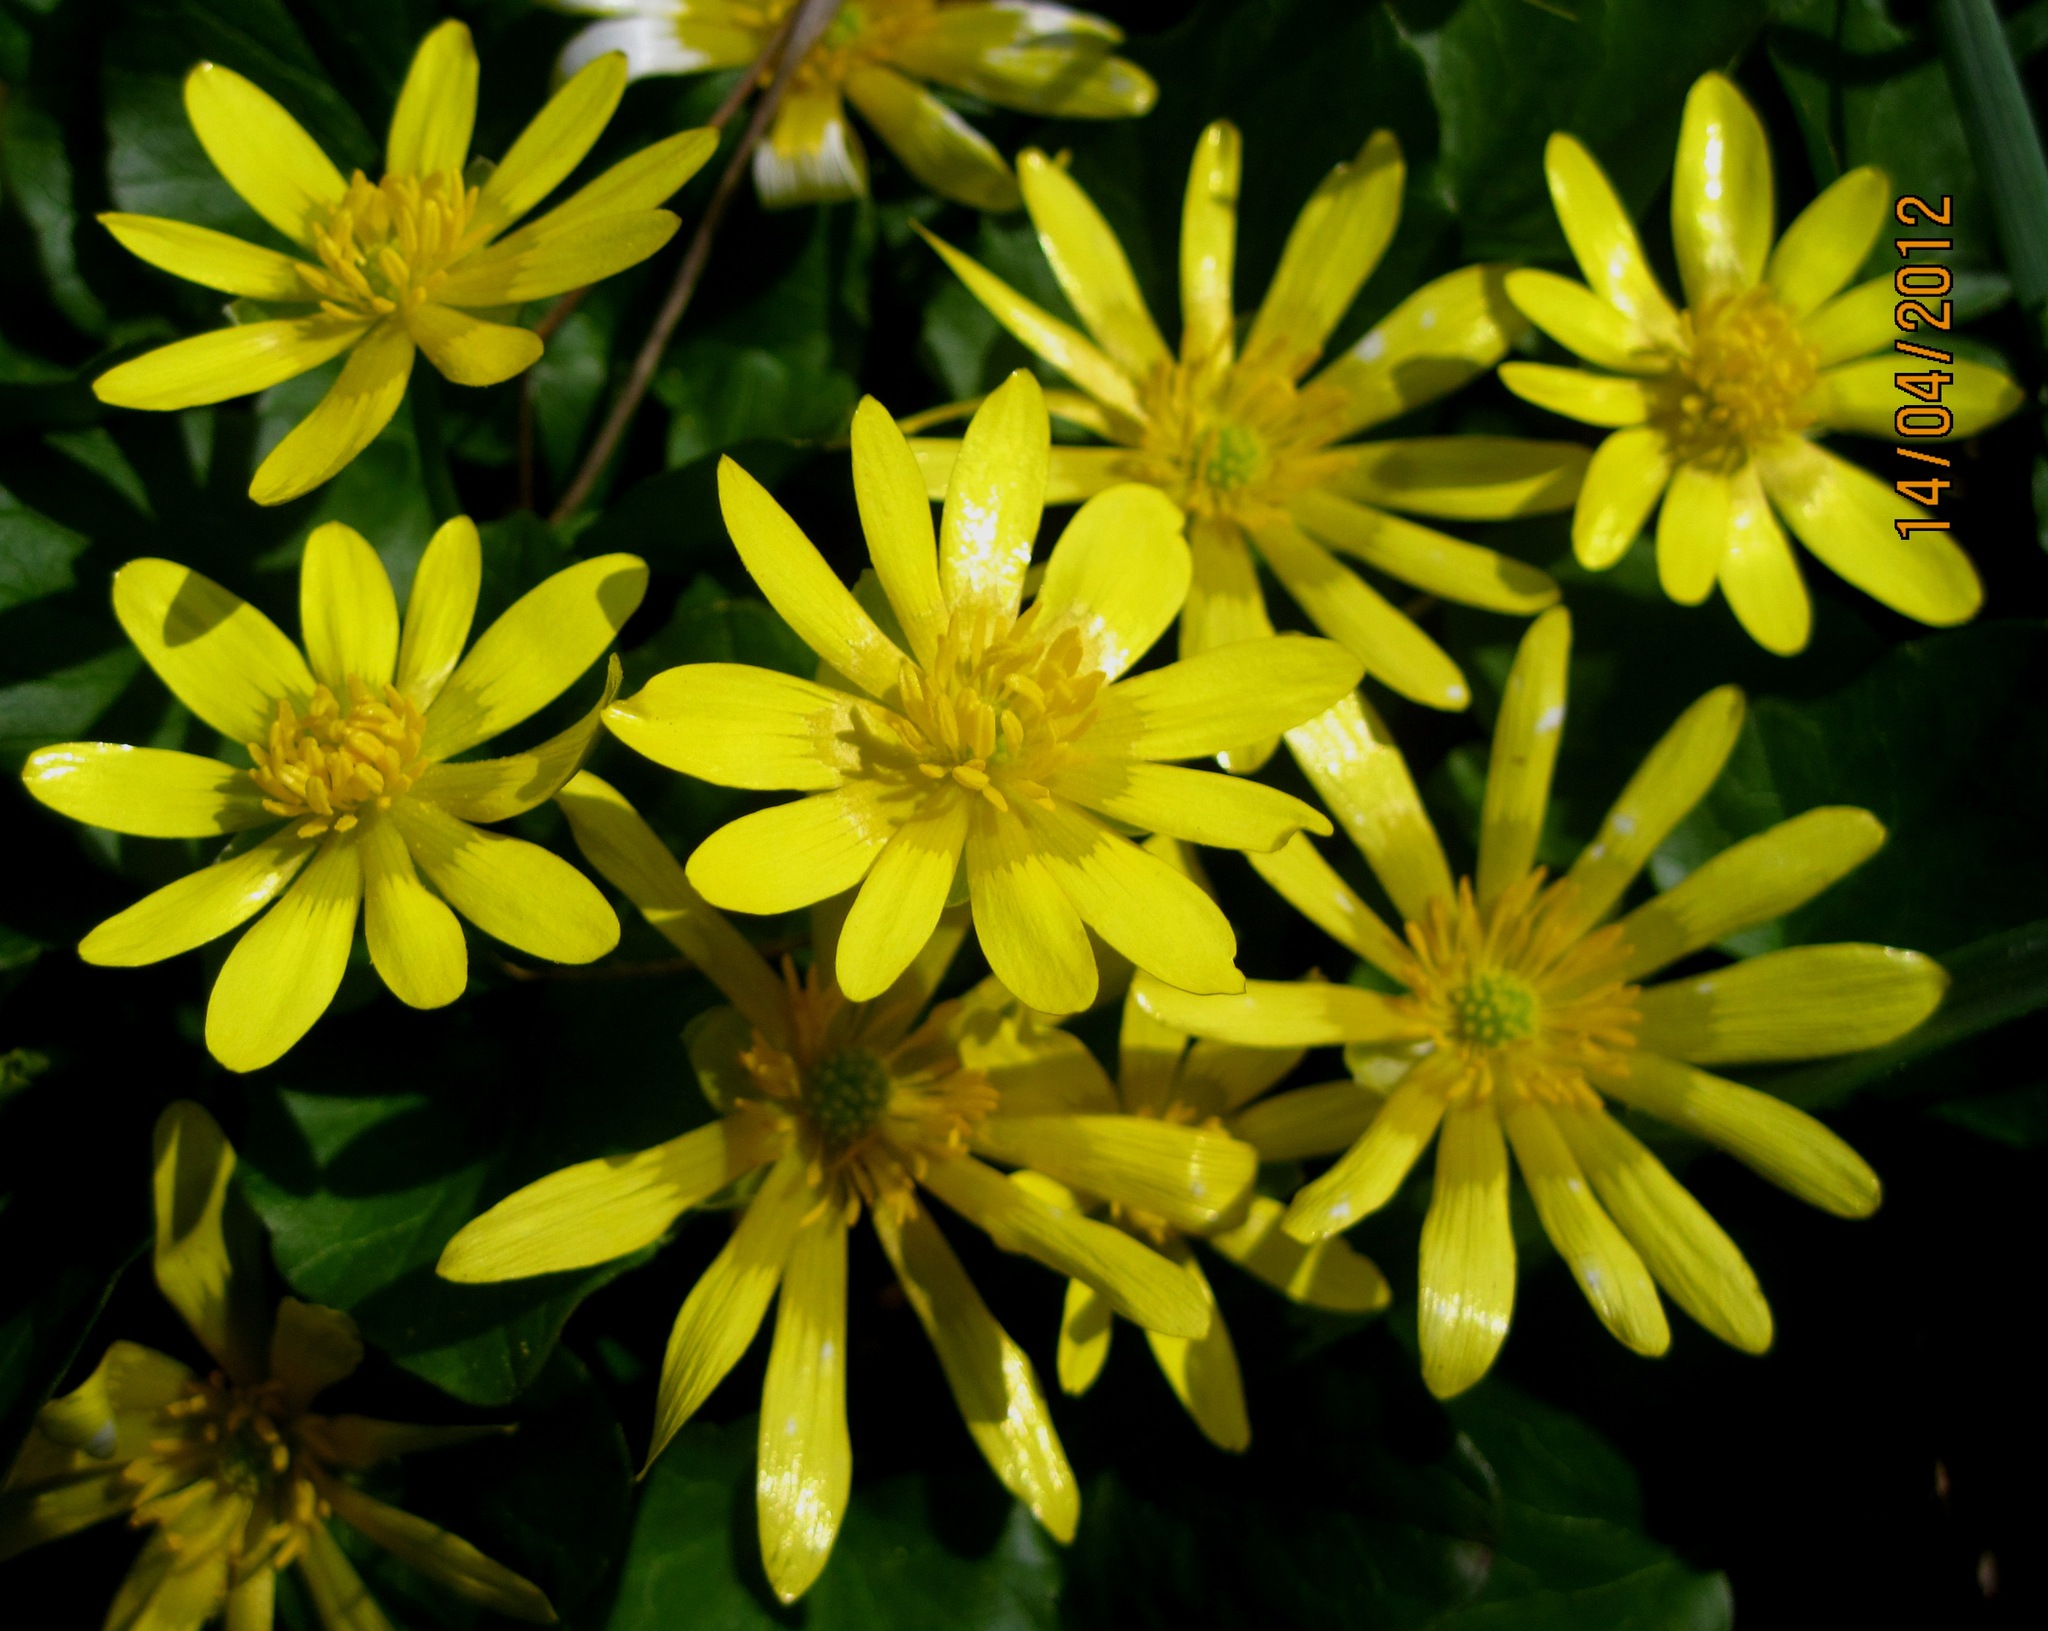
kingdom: Plantae
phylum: Tracheophyta
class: Magnoliopsida
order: Ranunculales
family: Ranunculaceae
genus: Ficaria
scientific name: Ficaria verna
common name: Lesser celandine
